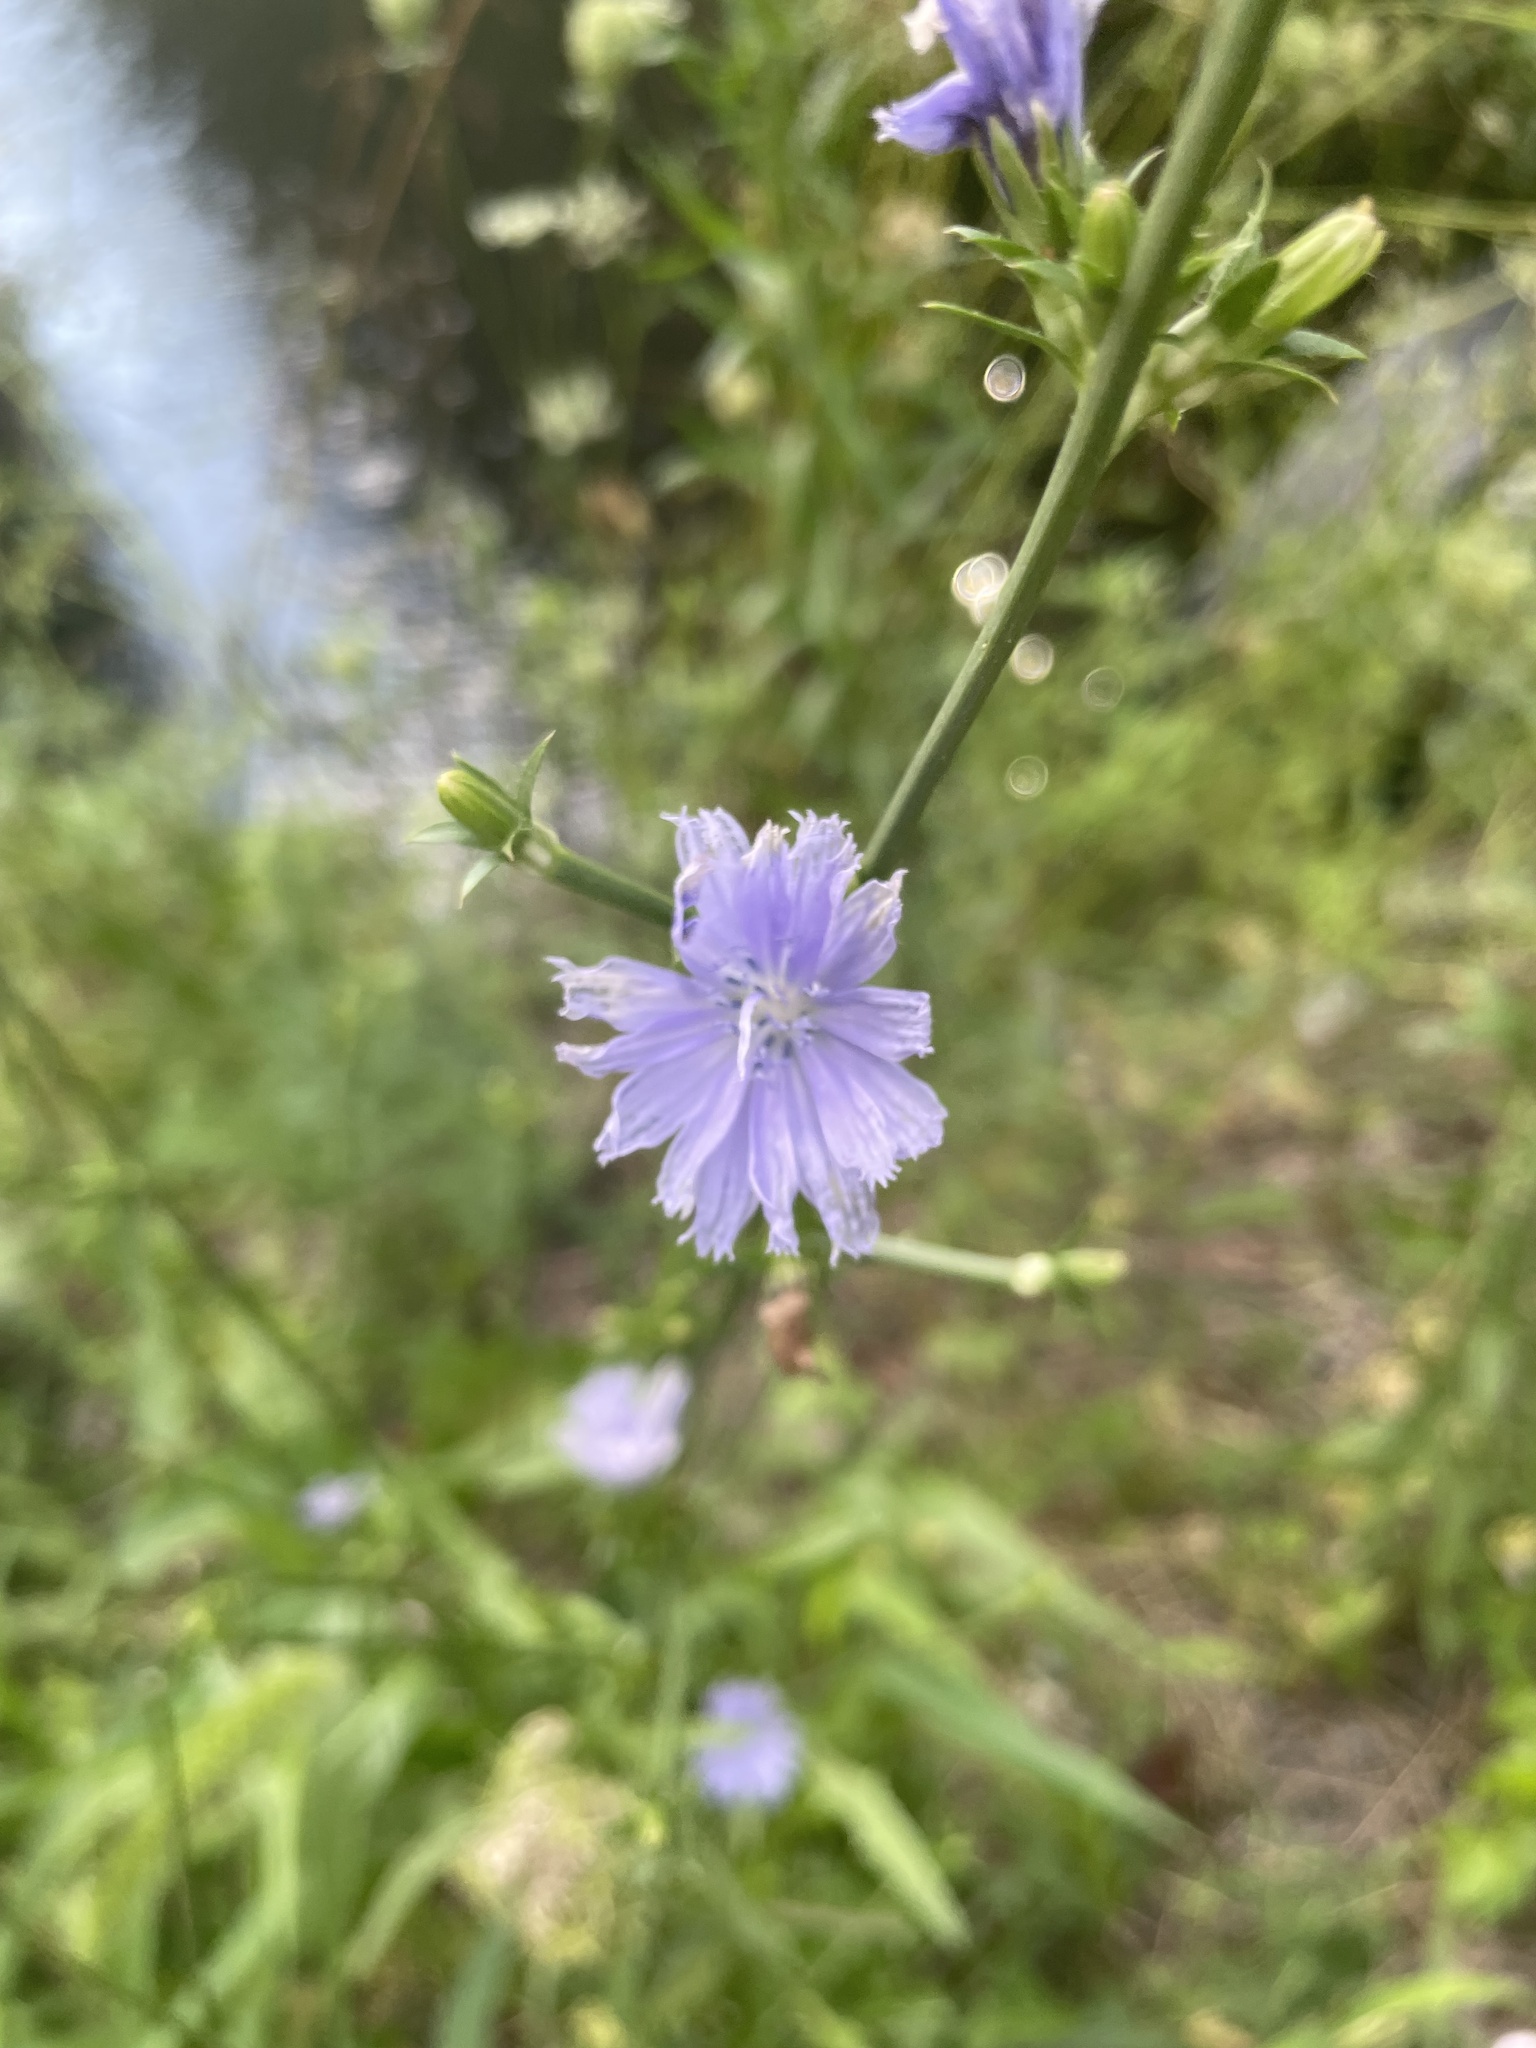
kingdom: Plantae
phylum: Tracheophyta
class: Magnoliopsida
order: Asterales
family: Asteraceae
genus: Cichorium
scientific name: Cichorium intybus
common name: Chicory
